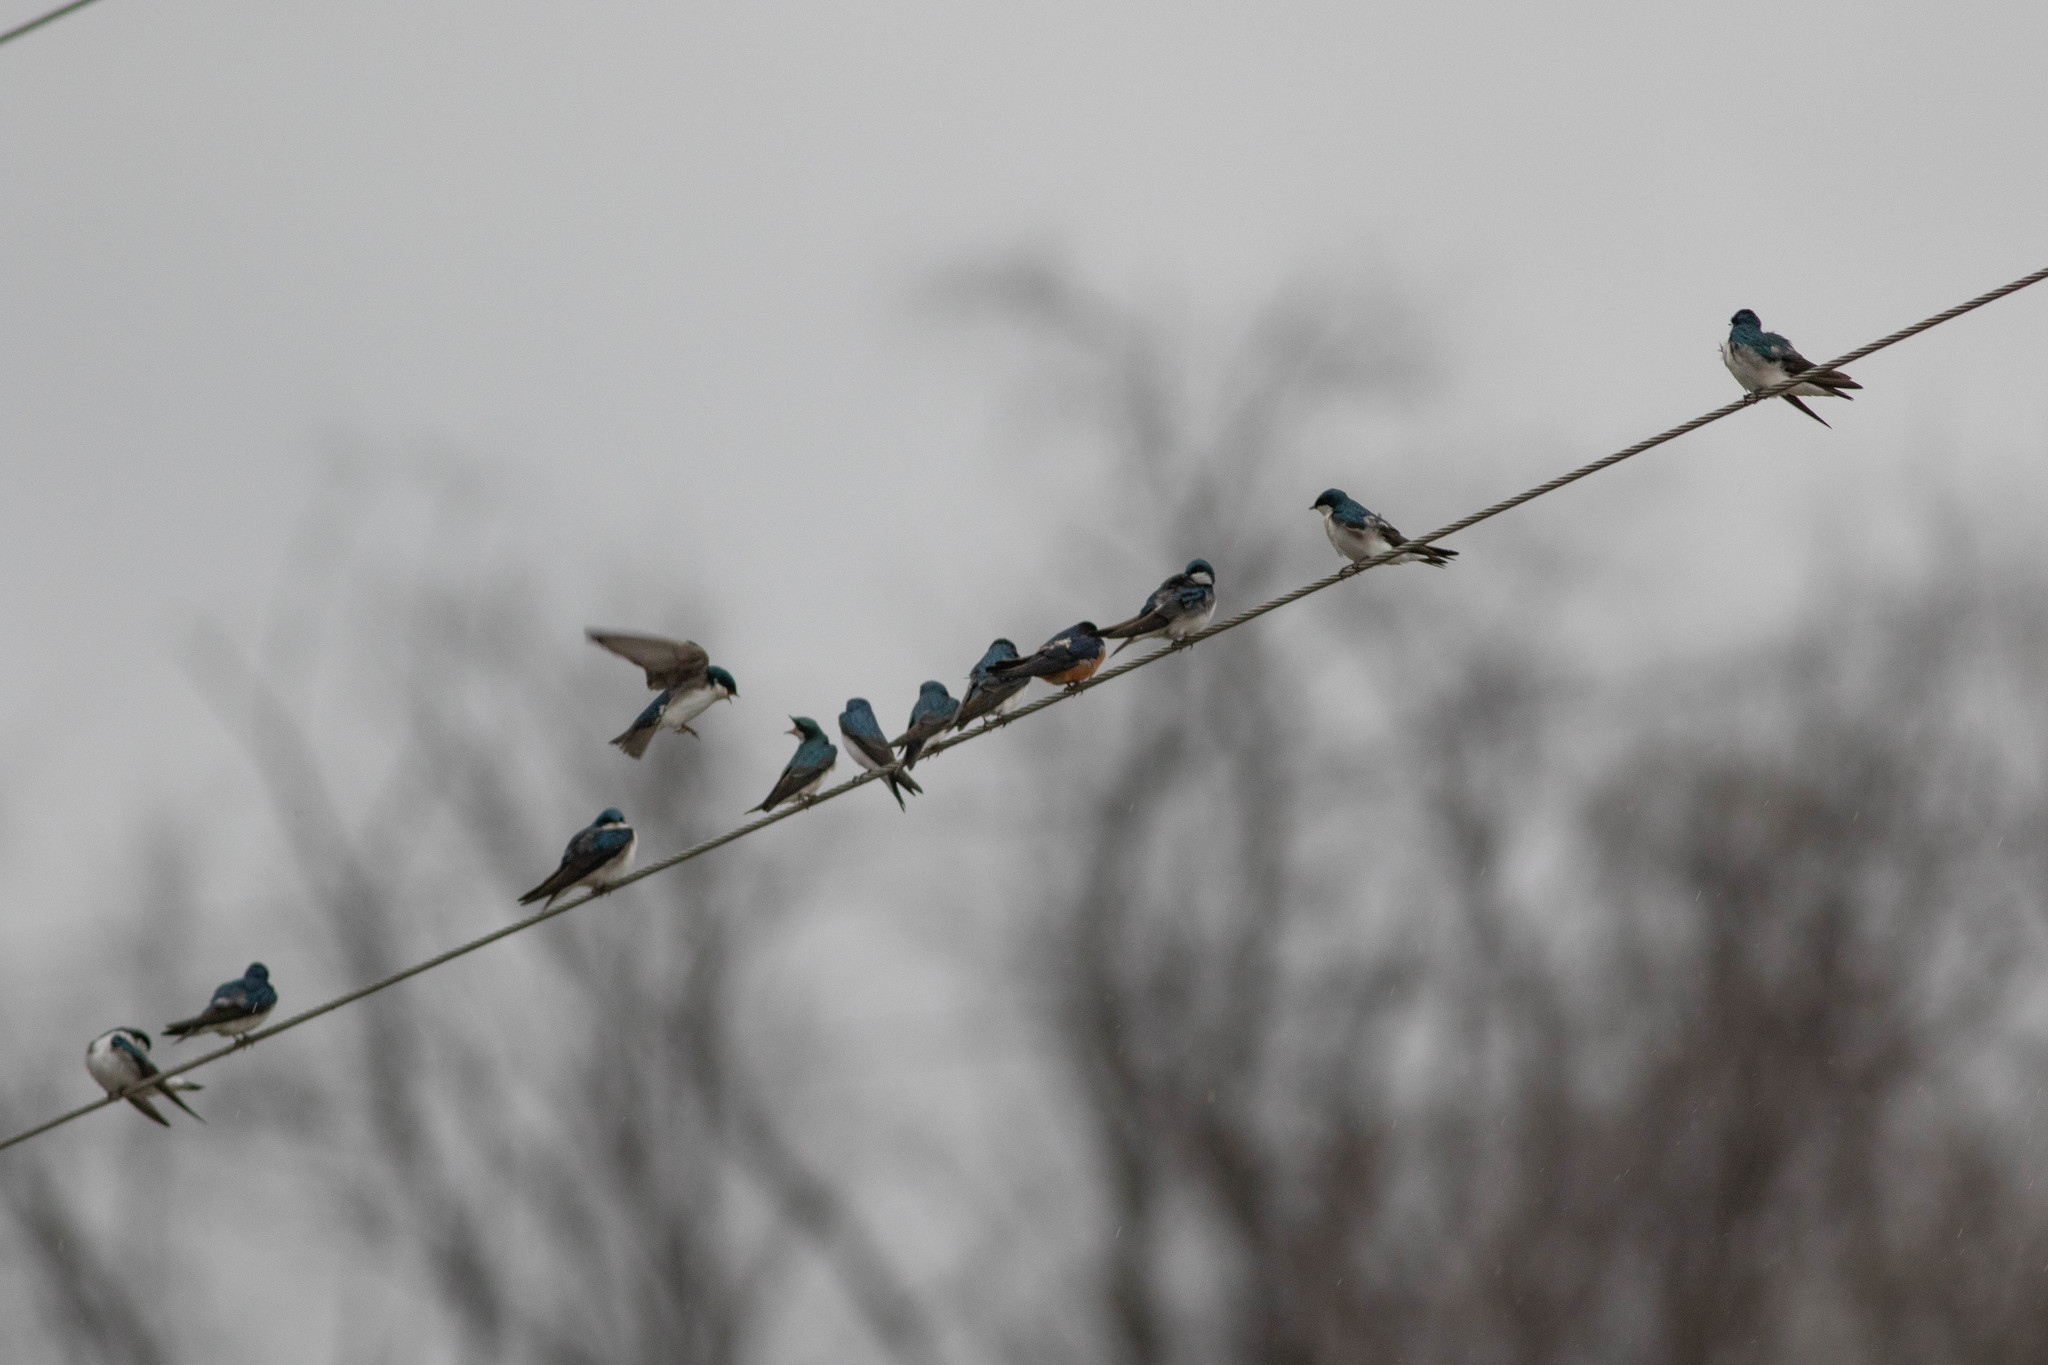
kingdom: Animalia
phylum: Chordata
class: Aves
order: Passeriformes
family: Hirundinidae
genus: Hirundo
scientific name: Hirundo rustica
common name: Barn swallow
